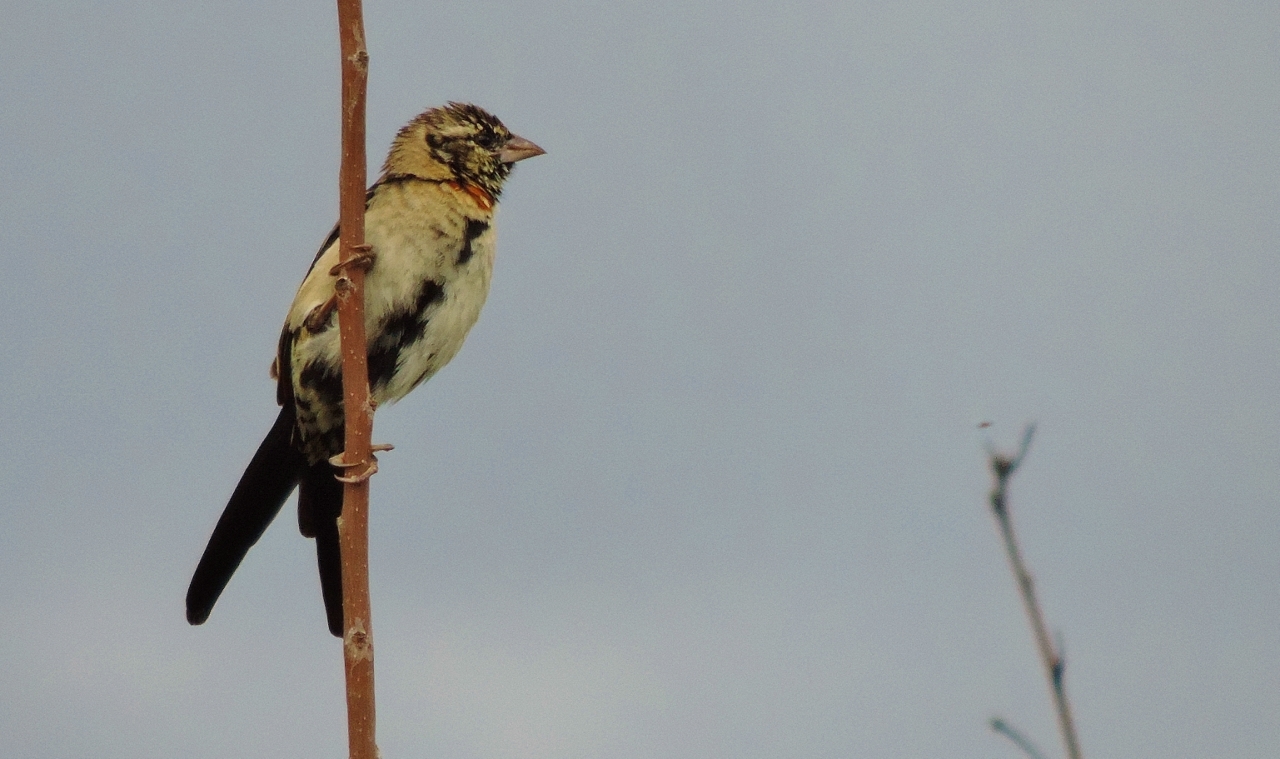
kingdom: Animalia
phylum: Chordata
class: Aves
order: Passeriformes
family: Ploceidae
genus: Euplectes
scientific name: Euplectes ardens
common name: Red-collared widowbird
